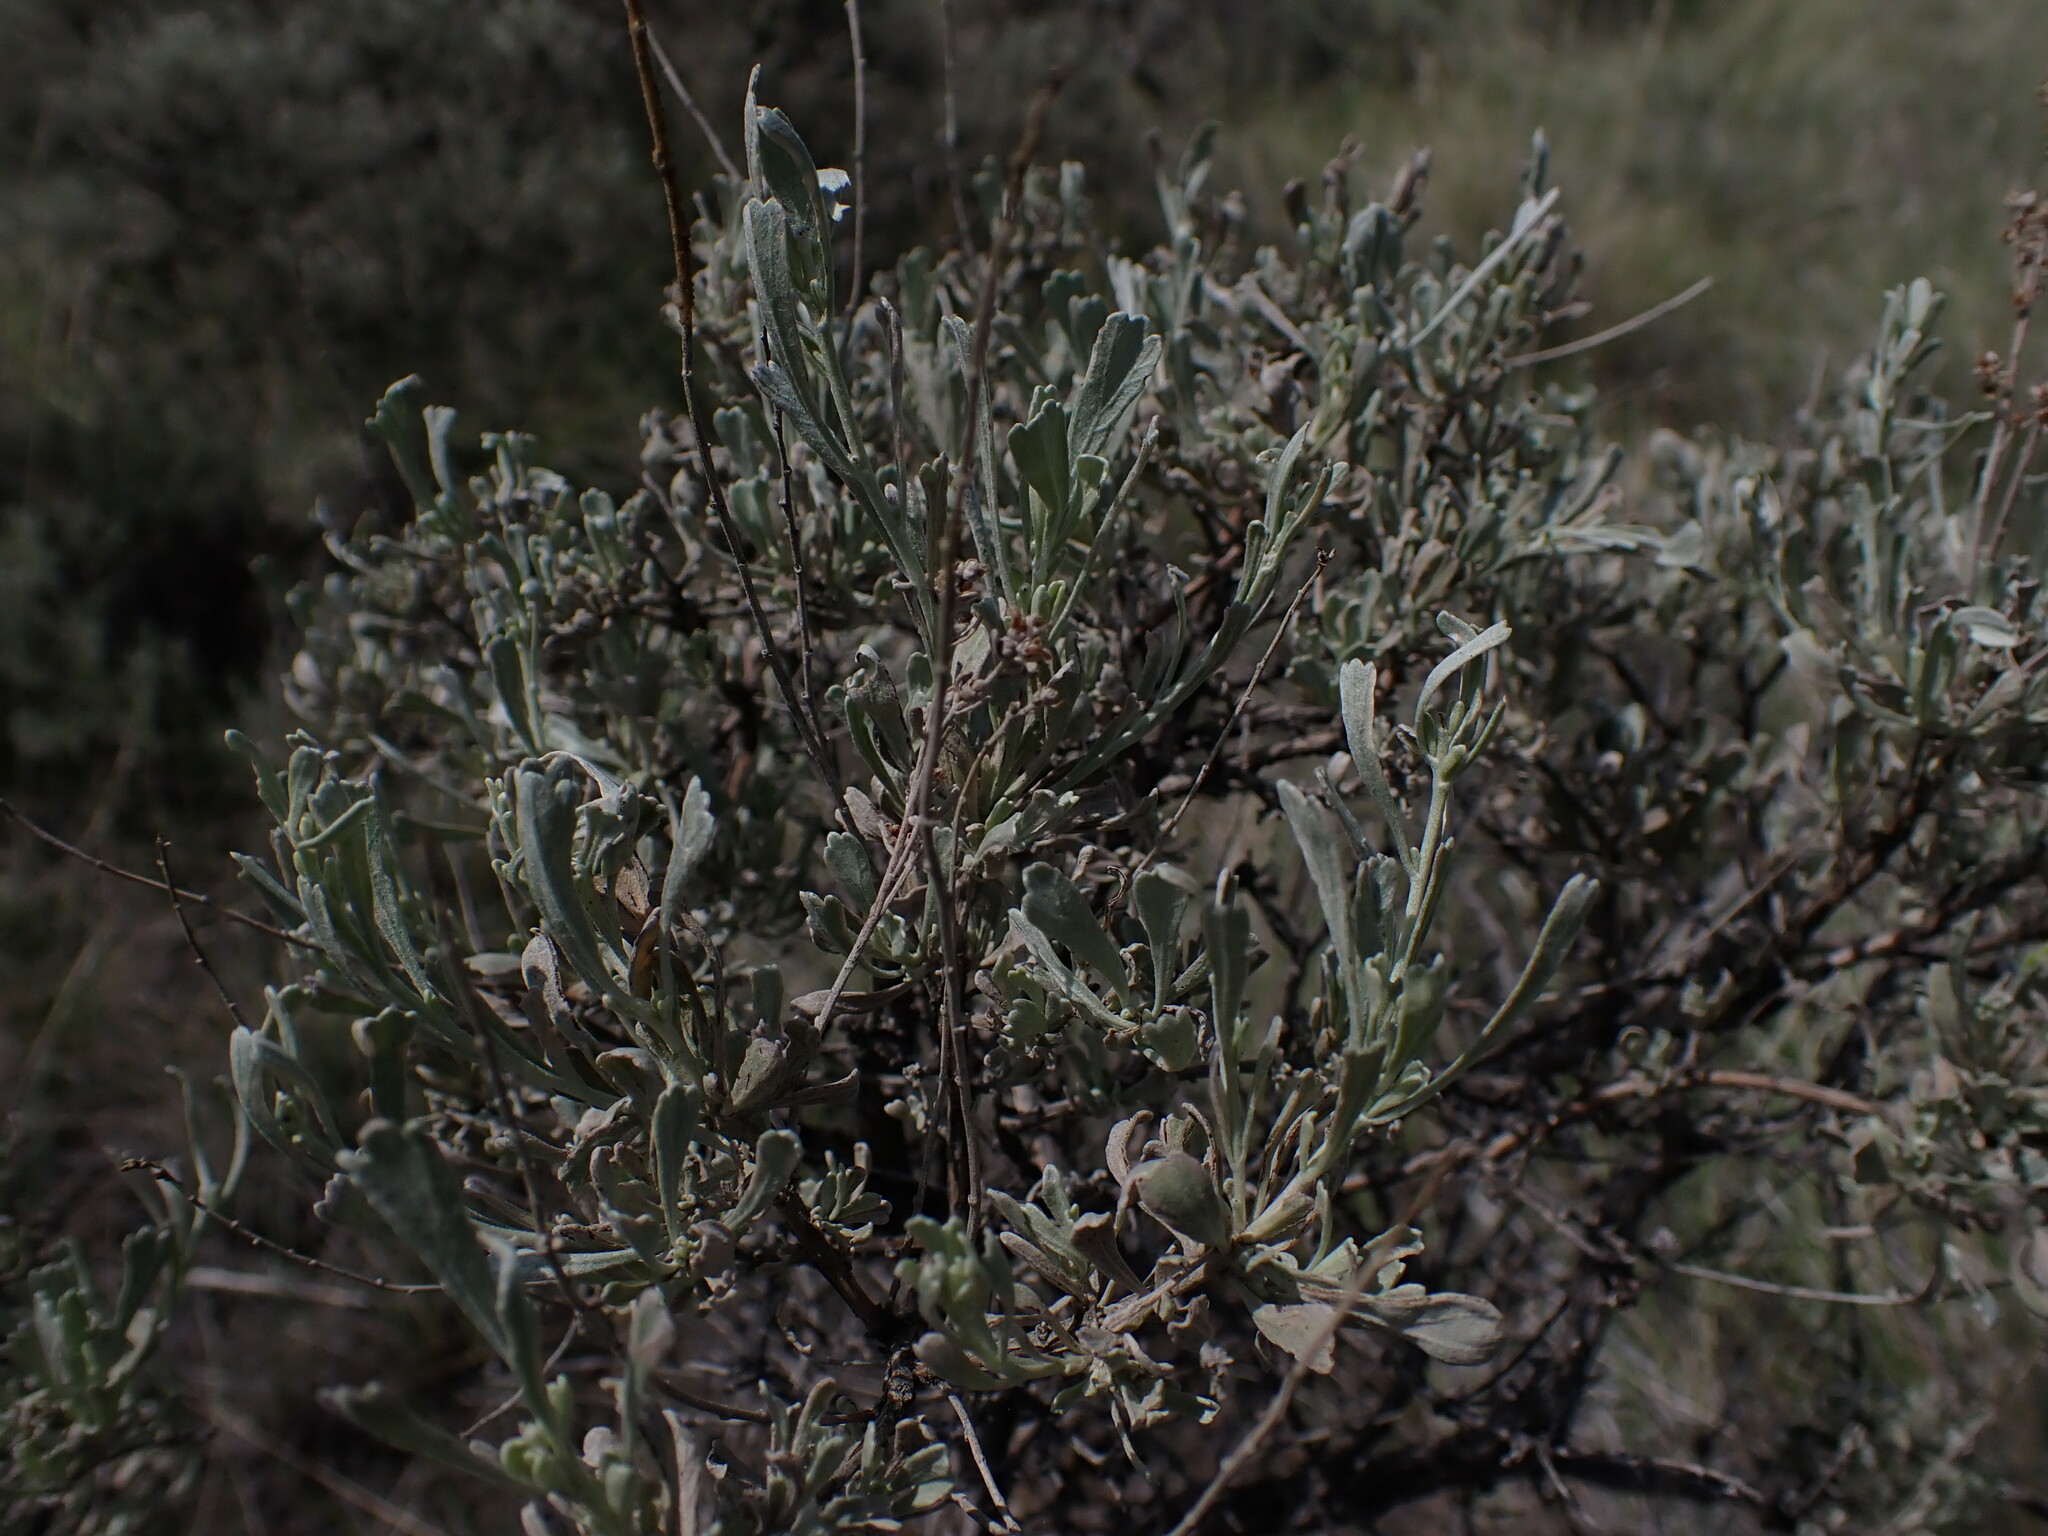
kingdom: Plantae
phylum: Tracheophyta
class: Magnoliopsida
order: Asterales
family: Asteraceae
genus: Artemisia
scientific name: Artemisia tridentata
